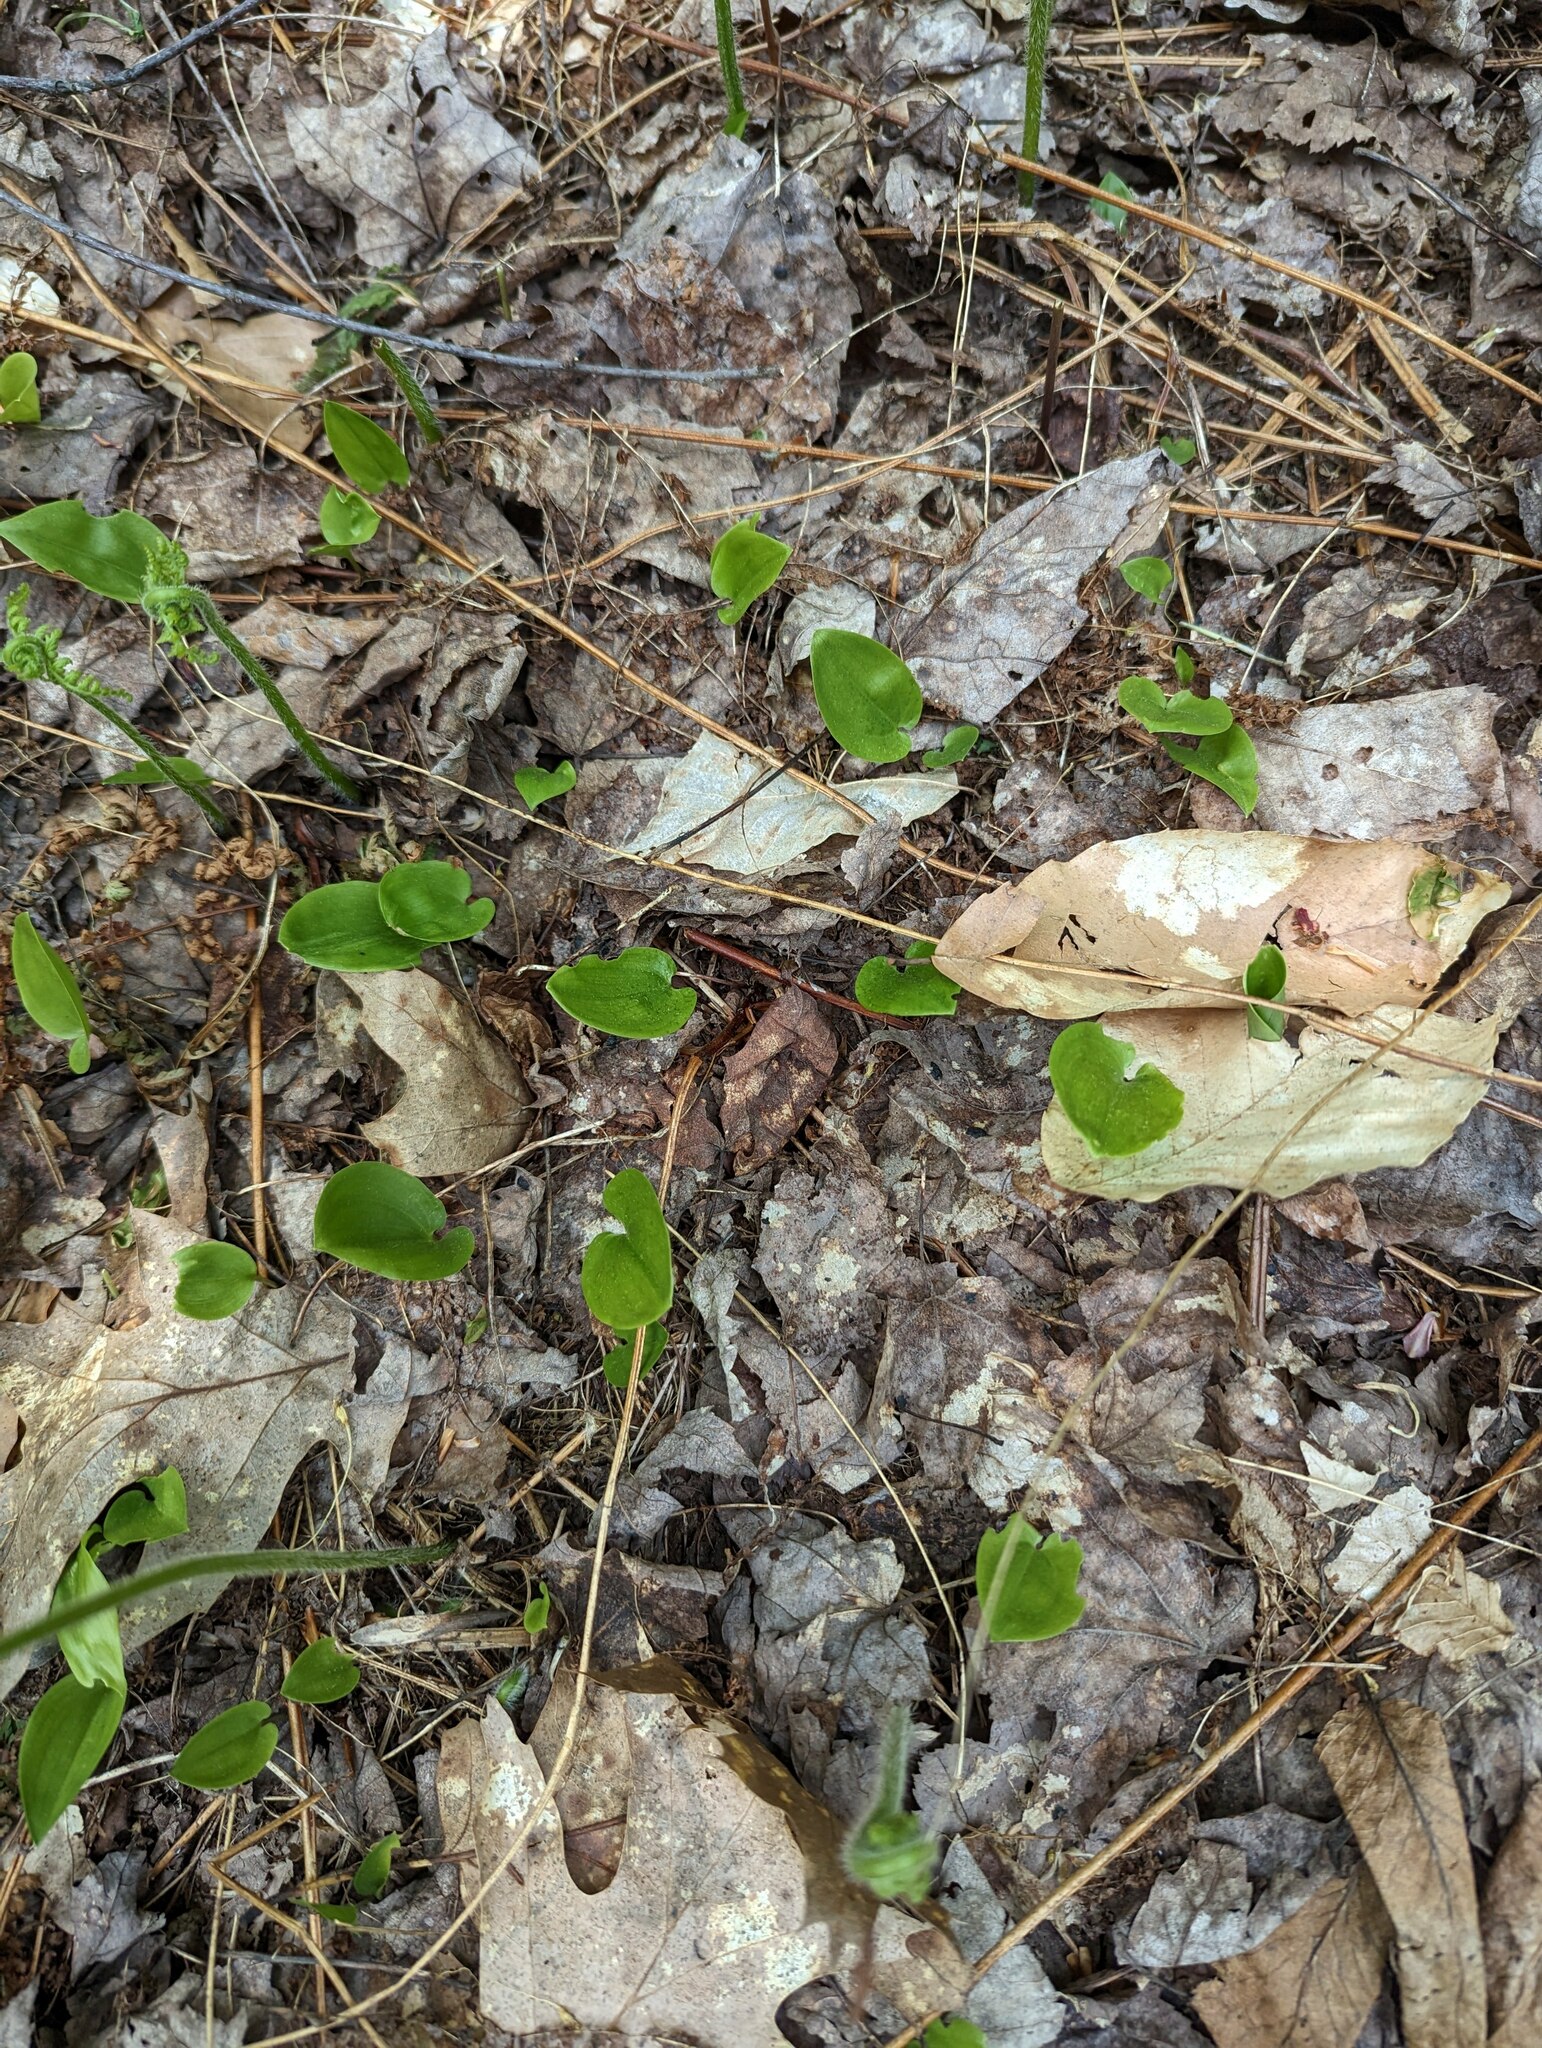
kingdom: Plantae
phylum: Tracheophyta
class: Liliopsida
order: Asparagales
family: Asparagaceae
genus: Maianthemum
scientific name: Maianthemum canadense
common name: False lily-of-the-valley
